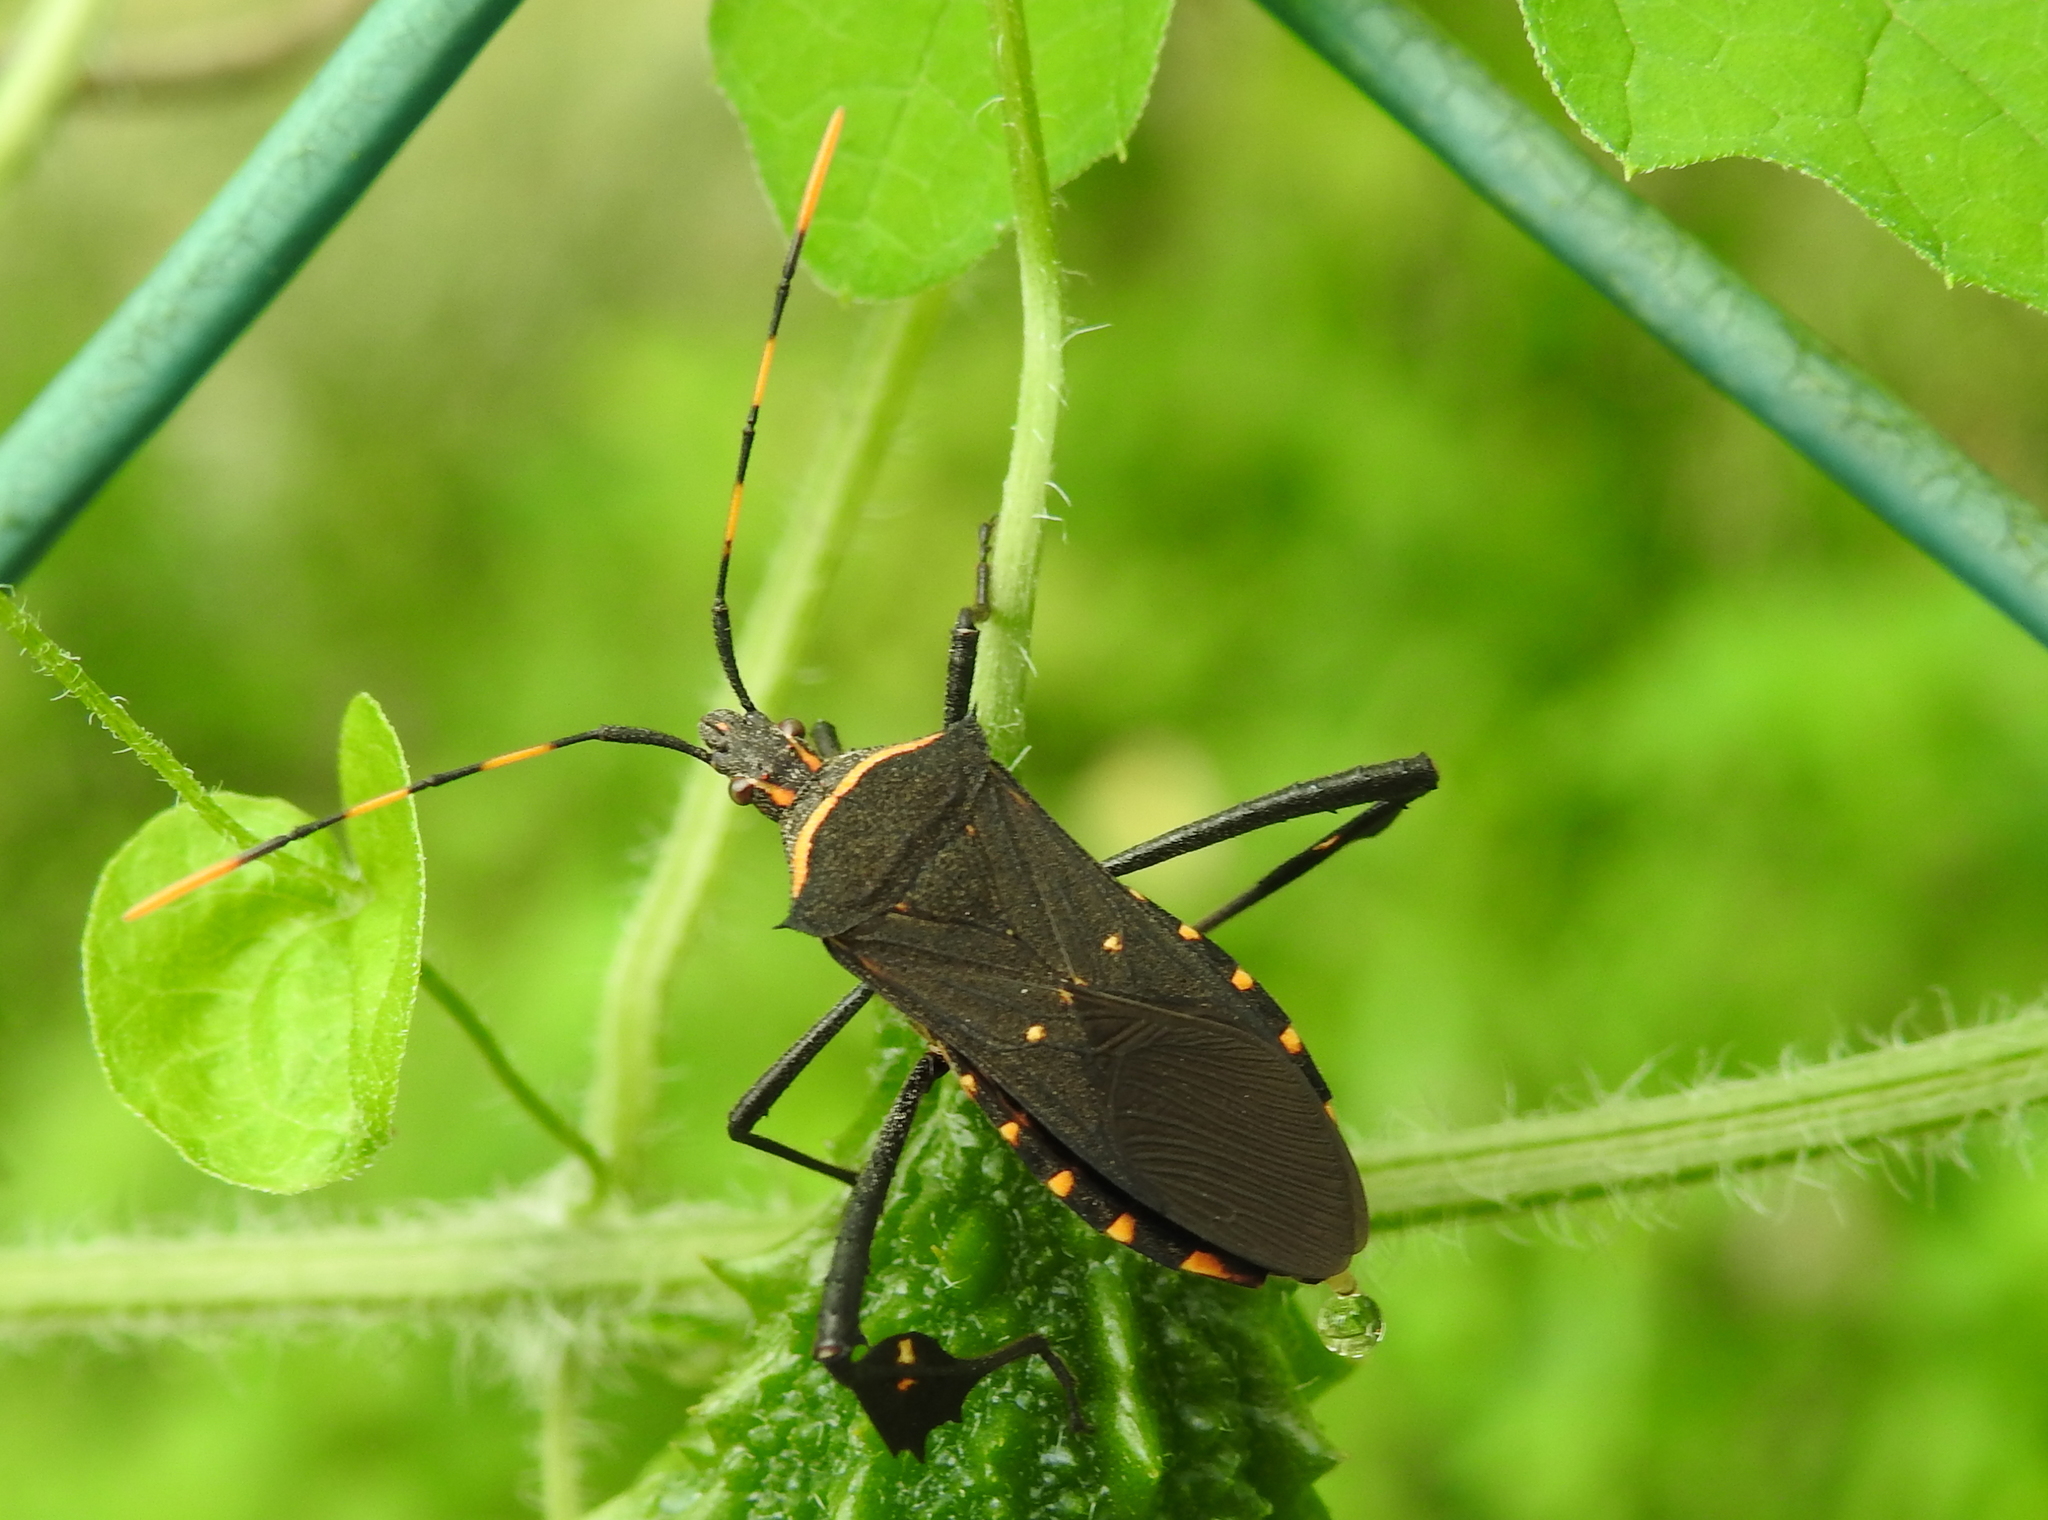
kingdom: Animalia
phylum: Arthropoda
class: Insecta
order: Hemiptera
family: Coreidae
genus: Leptoglossus
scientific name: Leptoglossus gonagra
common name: Citron bug
